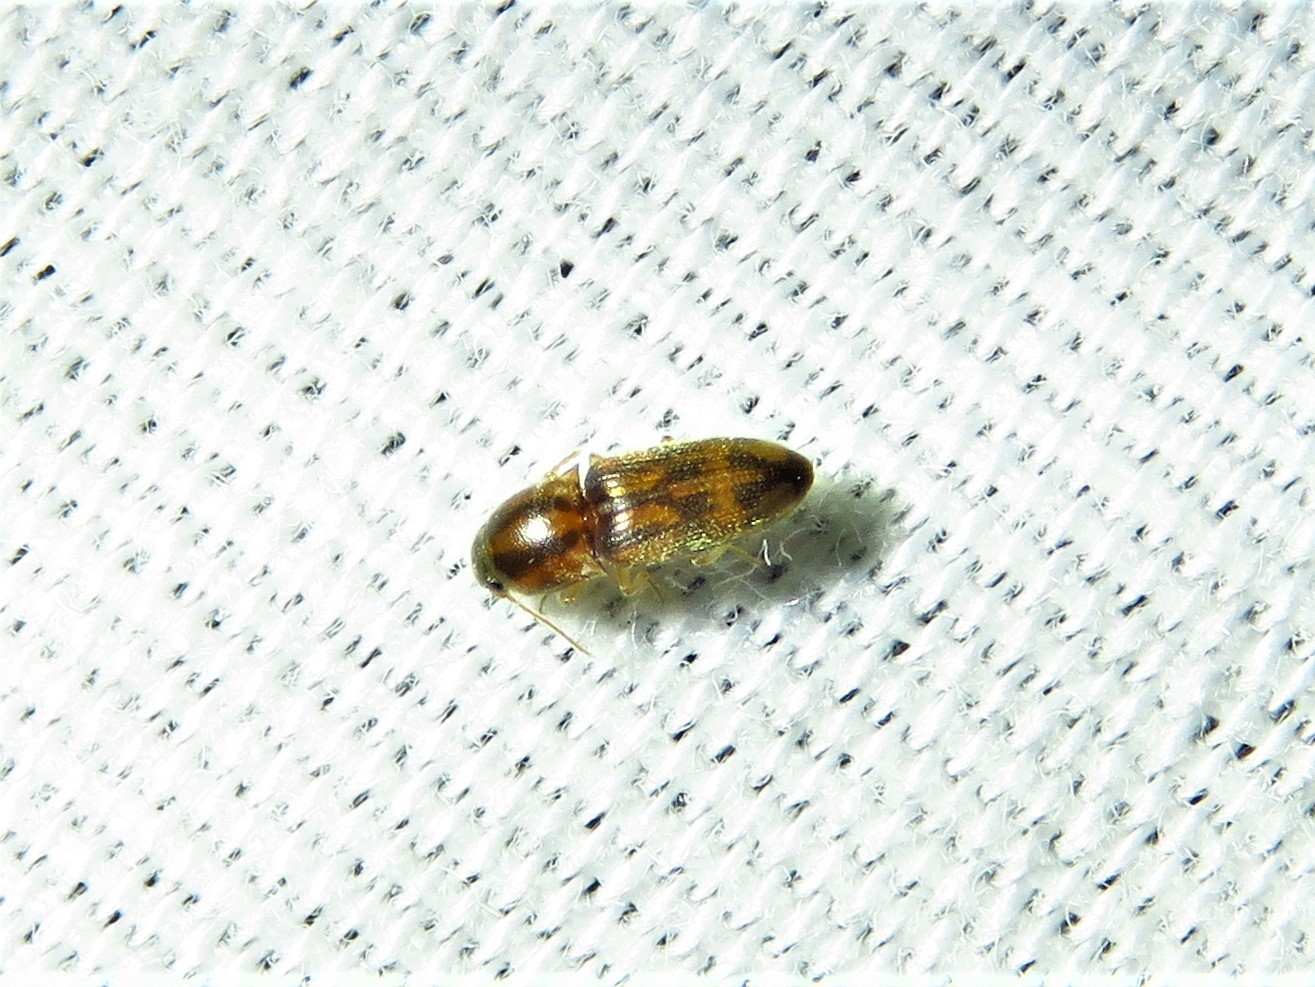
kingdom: Animalia
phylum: Arthropoda
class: Insecta
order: Coleoptera
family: Elateridae
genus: Monocrepidius
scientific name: Monocrepidius bellus
